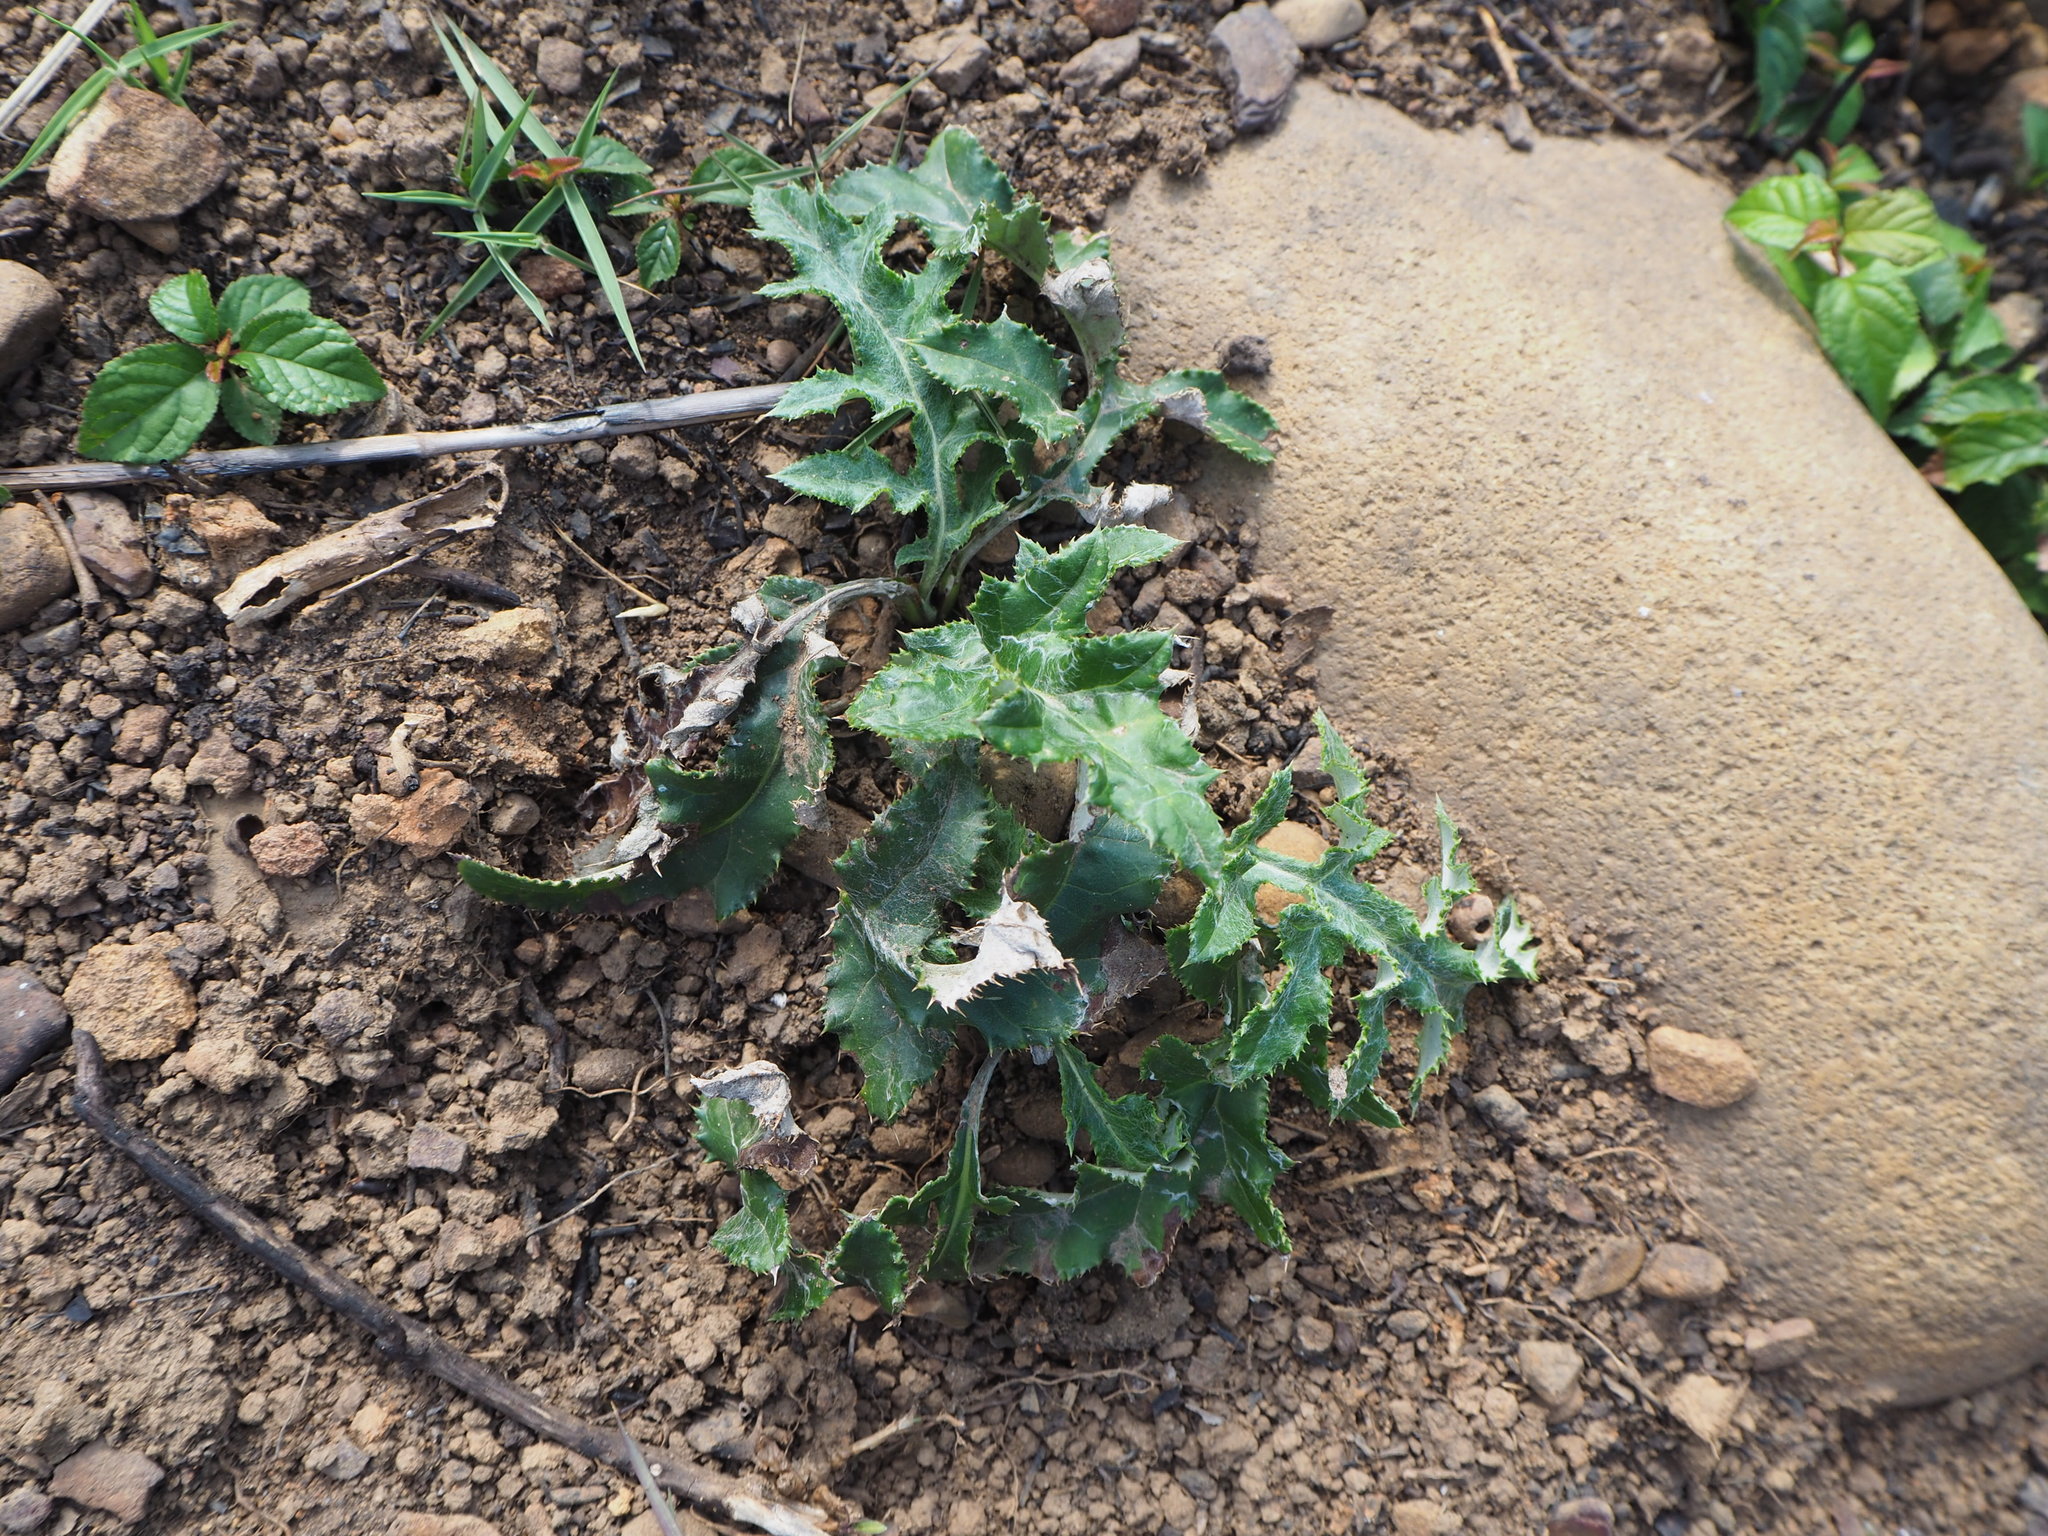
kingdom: Plantae
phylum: Tracheophyta
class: Magnoliopsida
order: Asterales
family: Asteraceae
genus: Echinops
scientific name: Echinops grijsii
